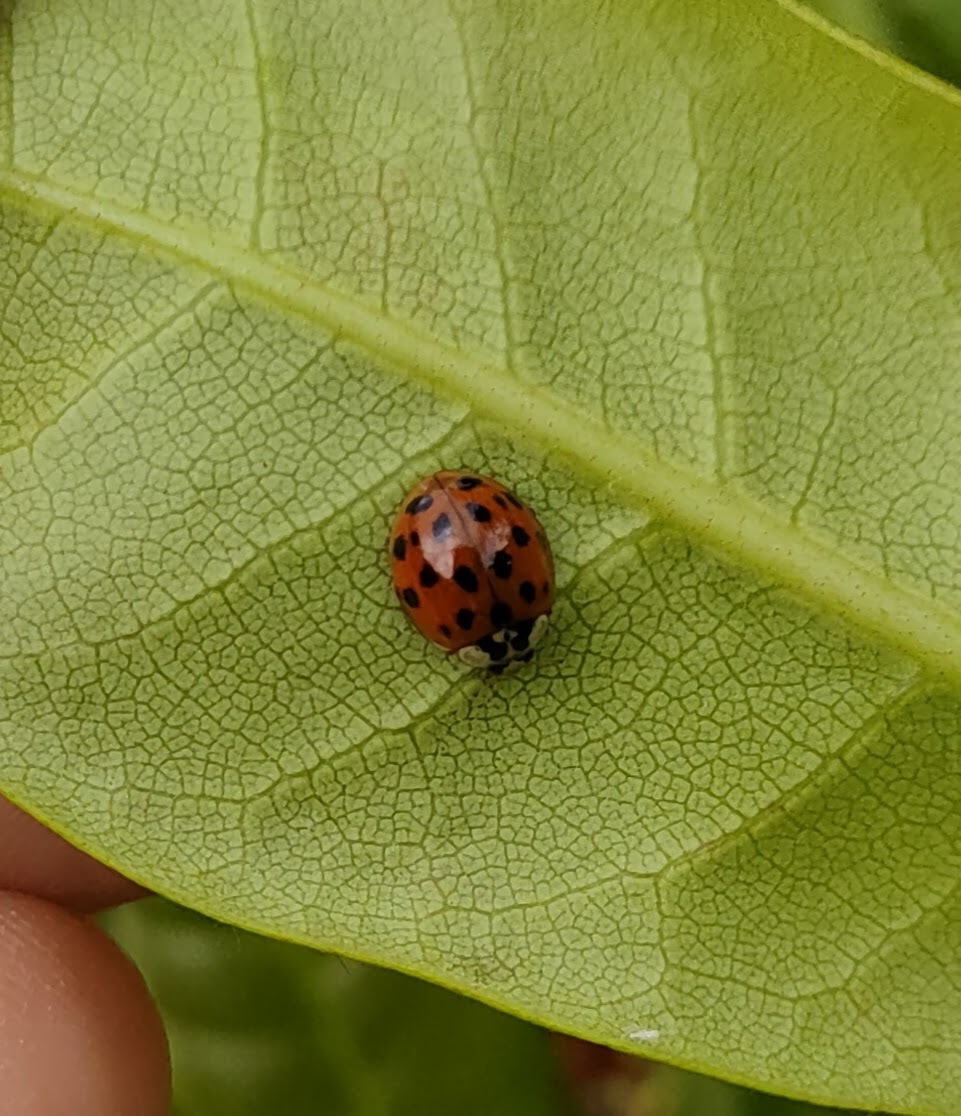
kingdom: Animalia
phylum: Arthropoda
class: Insecta
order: Coleoptera
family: Coccinellidae
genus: Harmonia
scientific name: Harmonia axyridis
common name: Harlequin ladybird
